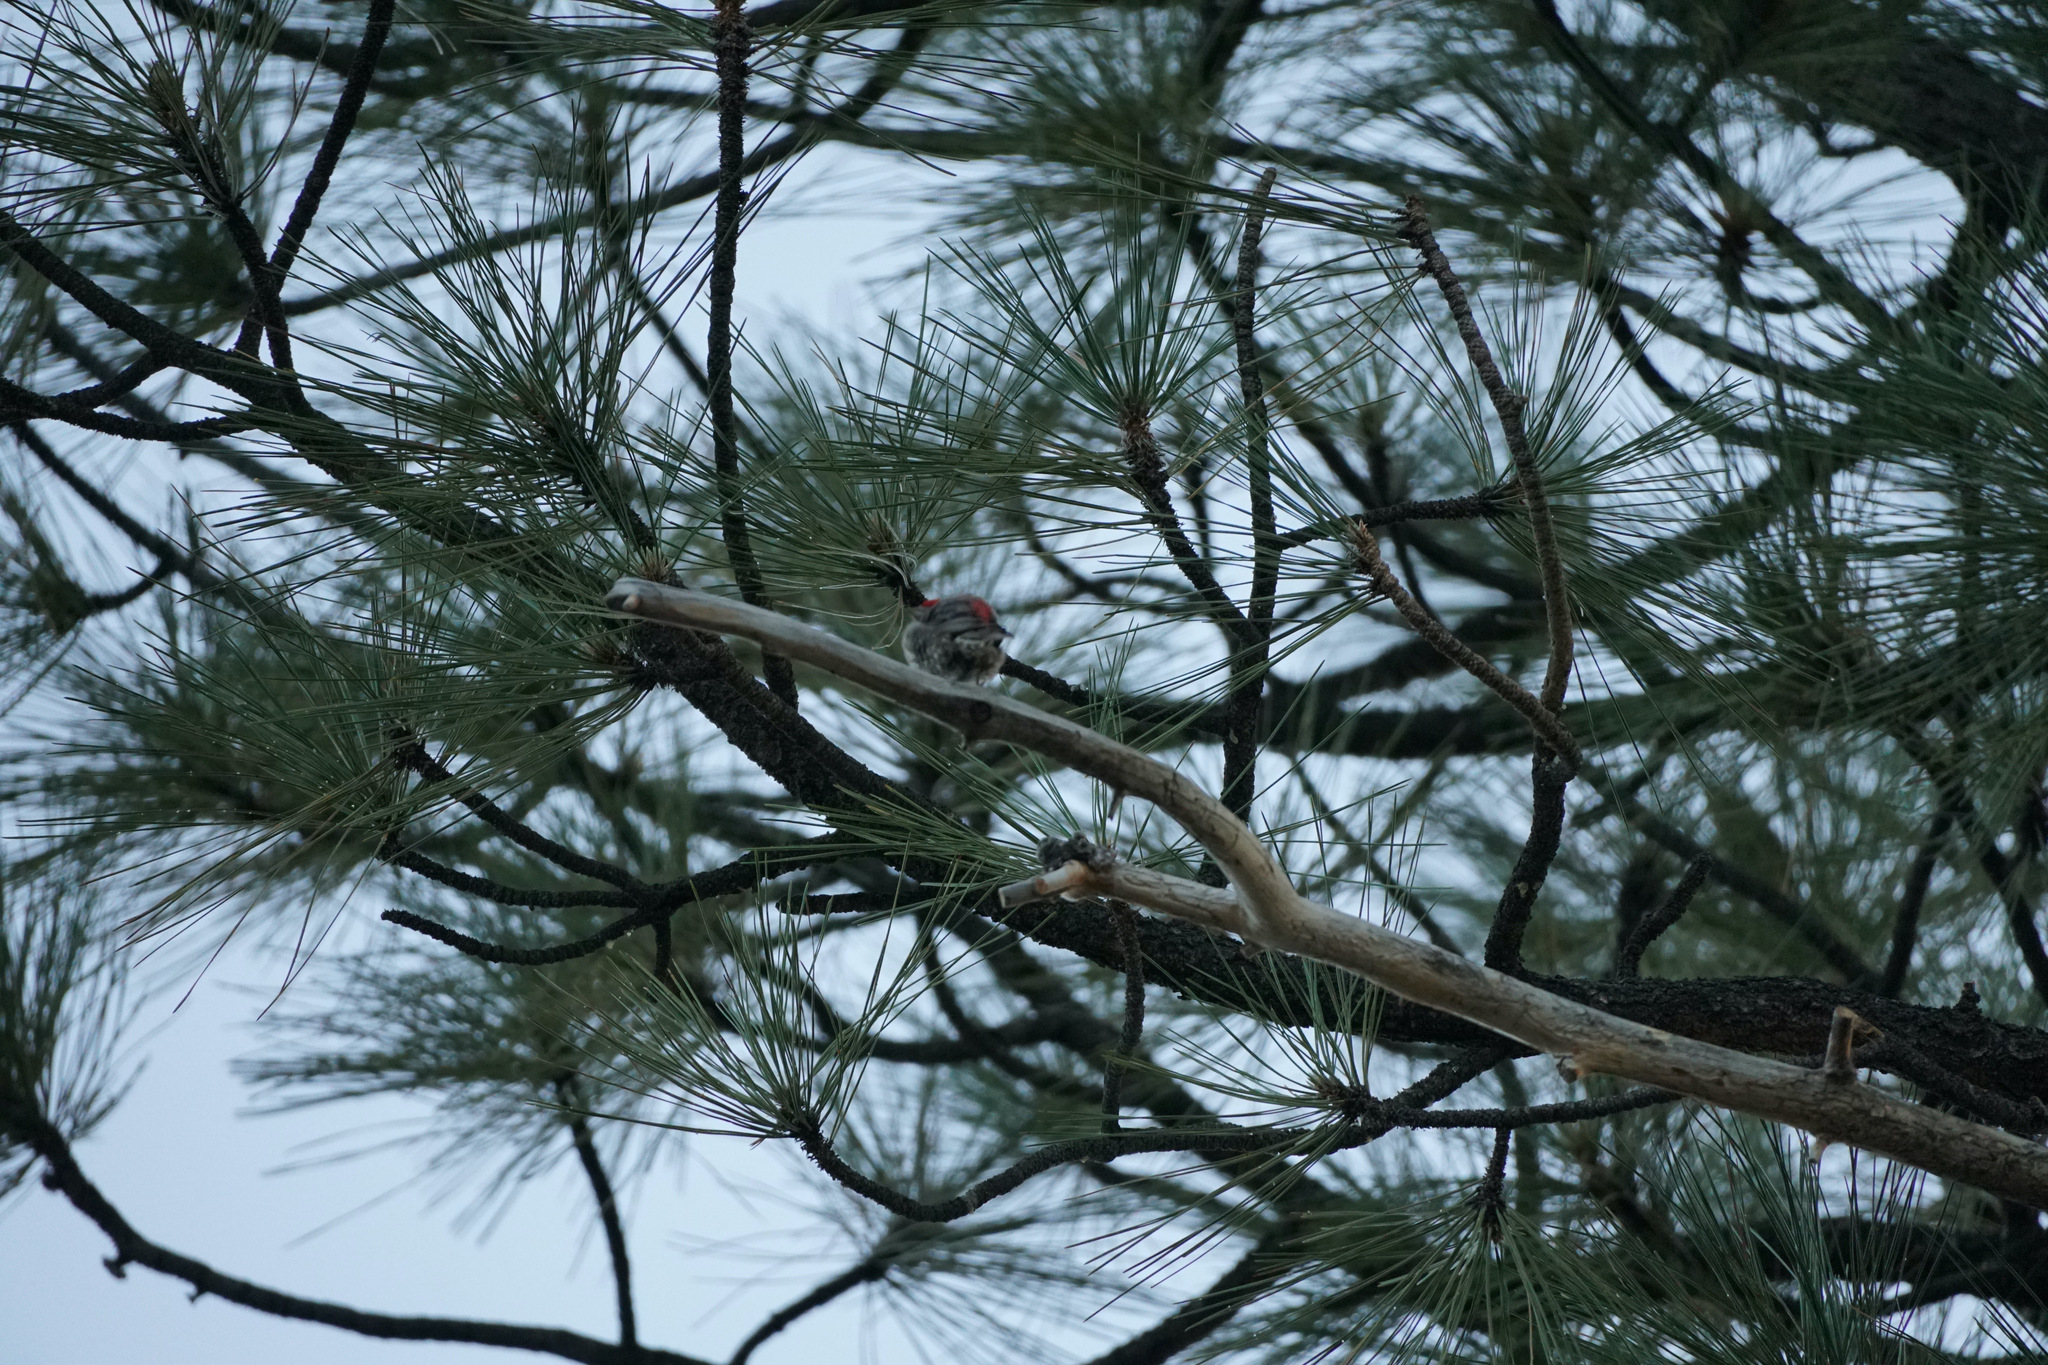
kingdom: Animalia
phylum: Chordata
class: Aves
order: Passeriformes
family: Fringillidae
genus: Haemorhous
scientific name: Haemorhous mexicanus
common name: House finch
